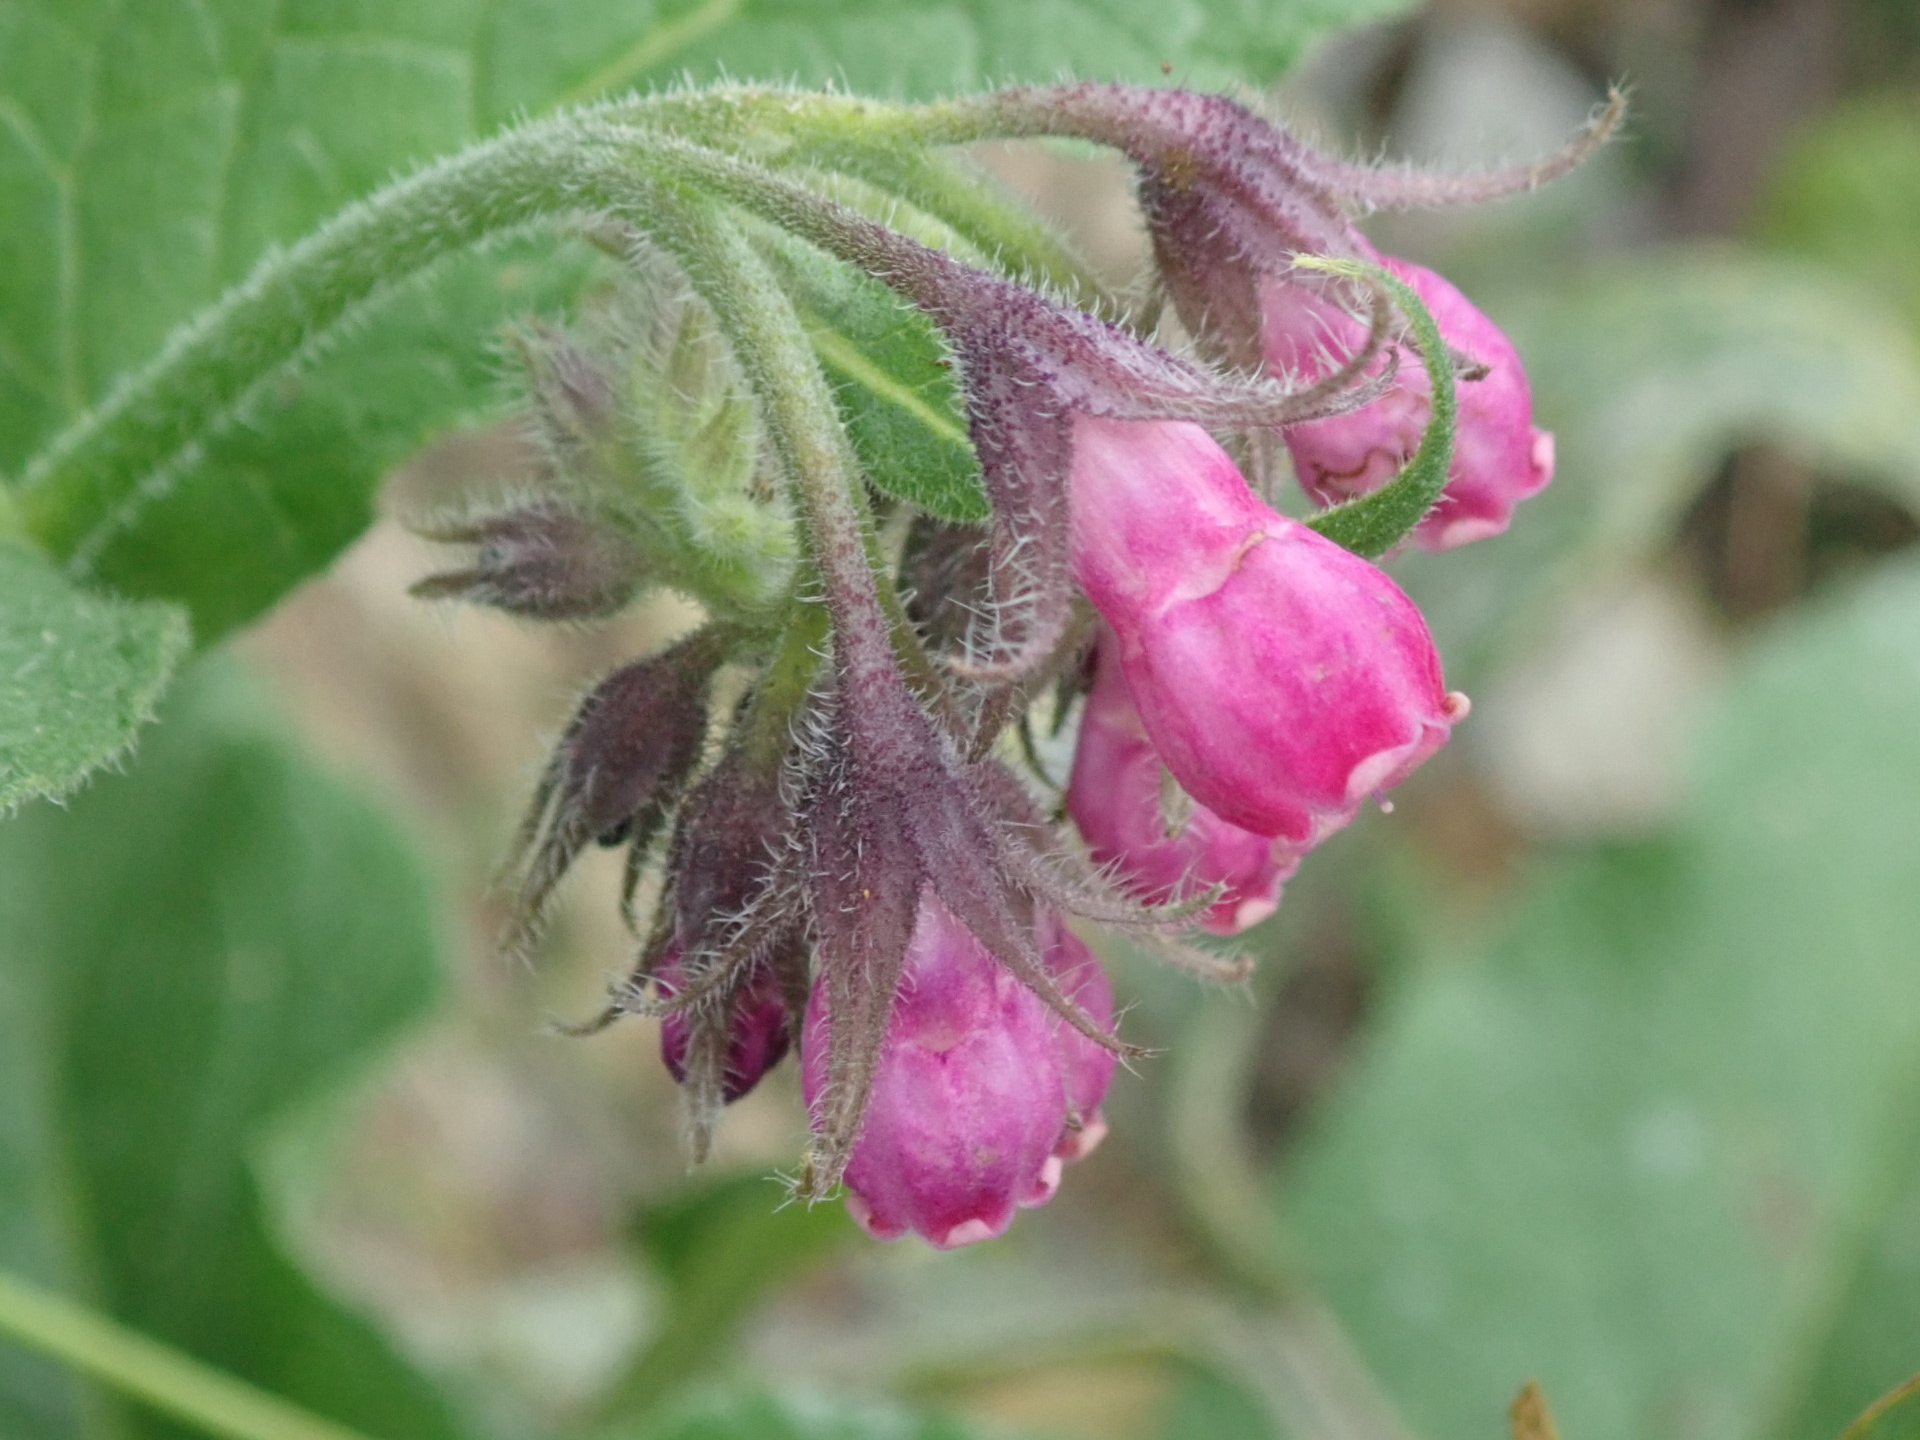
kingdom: Plantae
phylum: Tracheophyta
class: Magnoliopsida
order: Boraginales
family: Boraginaceae
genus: Symphytum
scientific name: Symphytum officinale
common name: Common comfrey
